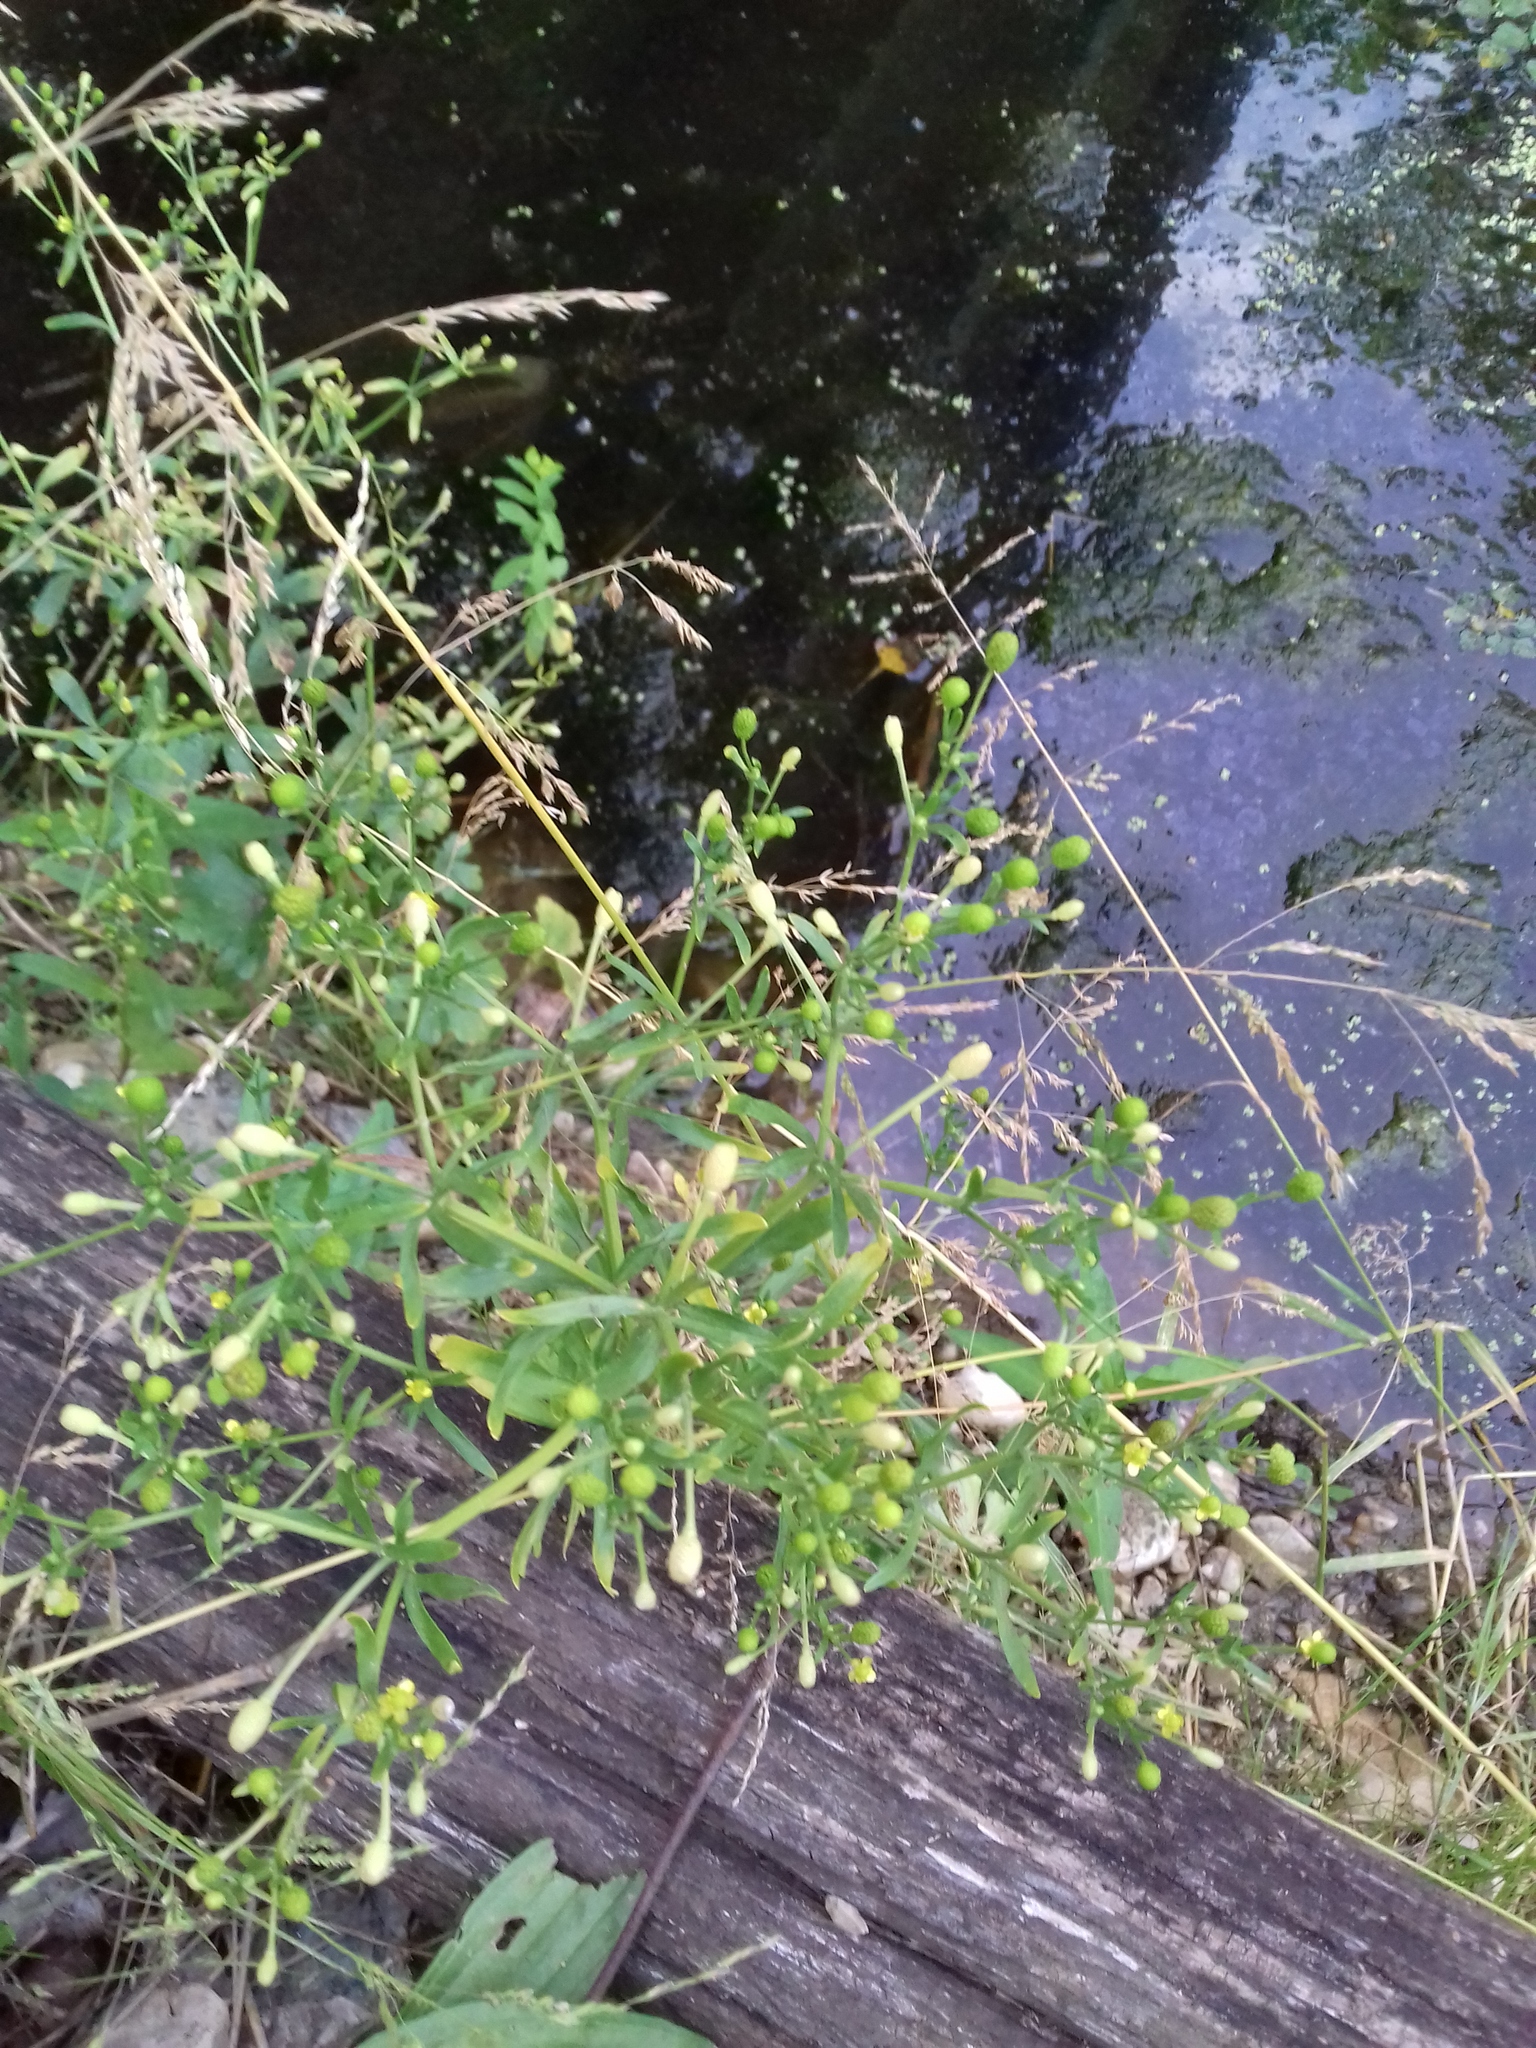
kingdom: Plantae
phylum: Tracheophyta
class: Magnoliopsida
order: Ranunculales
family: Ranunculaceae
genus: Ranunculus
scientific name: Ranunculus sceleratus
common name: Celery-leaved buttercup
